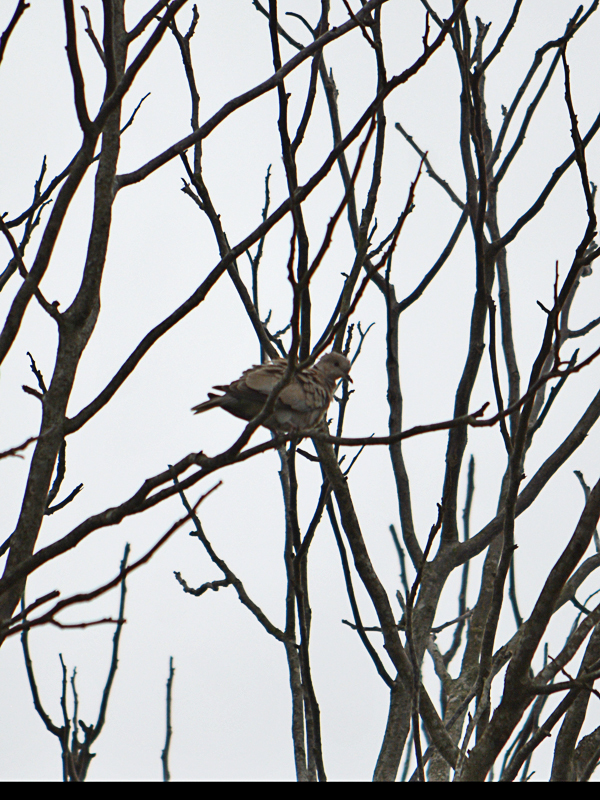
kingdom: Animalia
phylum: Chordata
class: Aves
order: Columbiformes
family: Columbidae
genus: Streptopelia
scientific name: Streptopelia decaocto
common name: Eurasian collared dove
